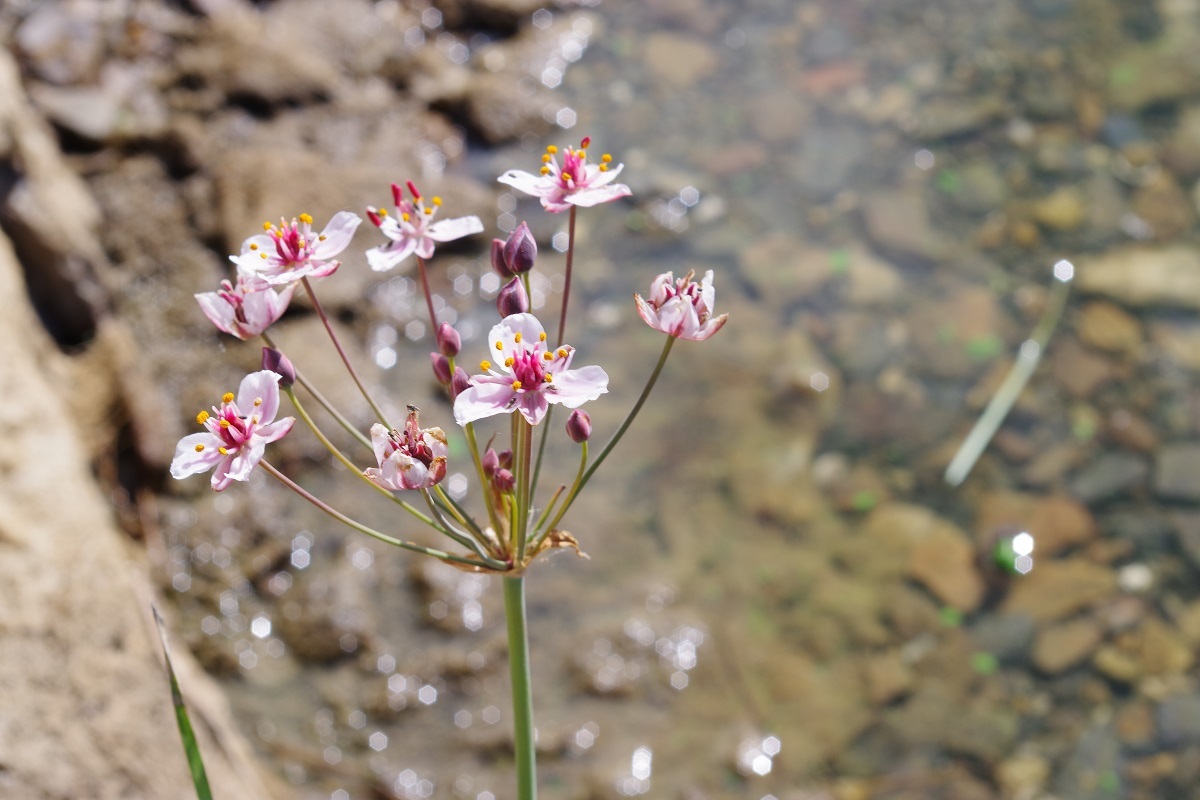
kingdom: Plantae
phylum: Tracheophyta
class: Liliopsida
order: Alismatales
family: Butomaceae
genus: Butomus
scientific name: Butomus umbellatus
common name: Flowering-rush
